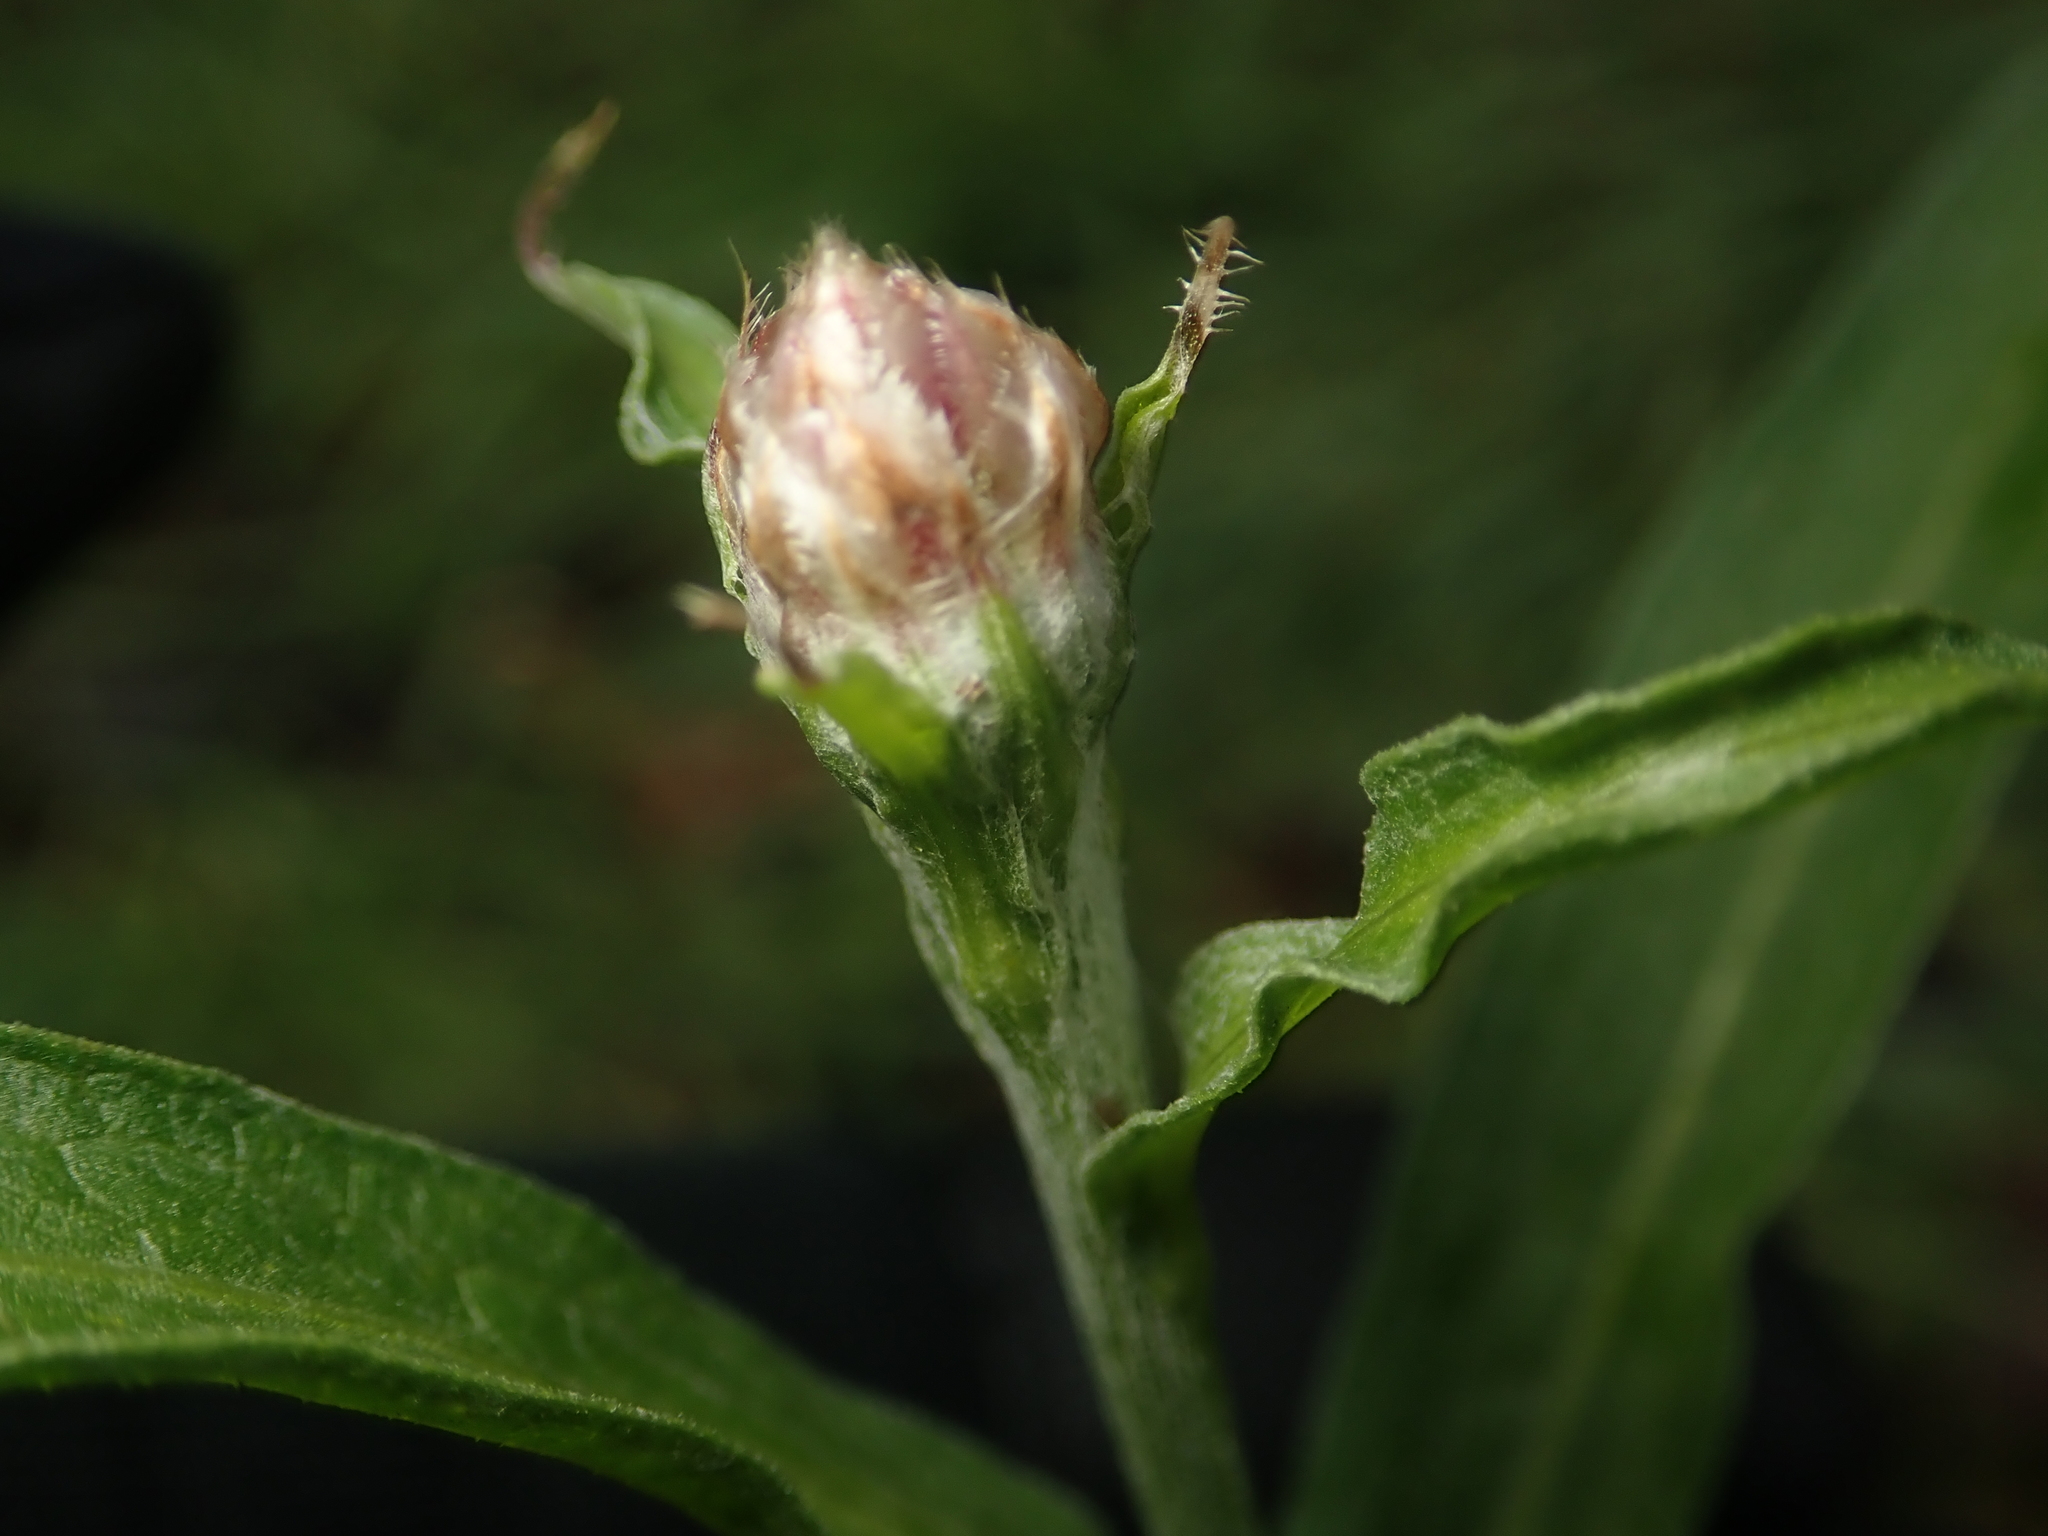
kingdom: Plantae
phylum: Tracheophyta
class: Magnoliopsida
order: Asterales
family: Asteraceae
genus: Centaurea
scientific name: Centaurea jacea
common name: Brown knapweed
